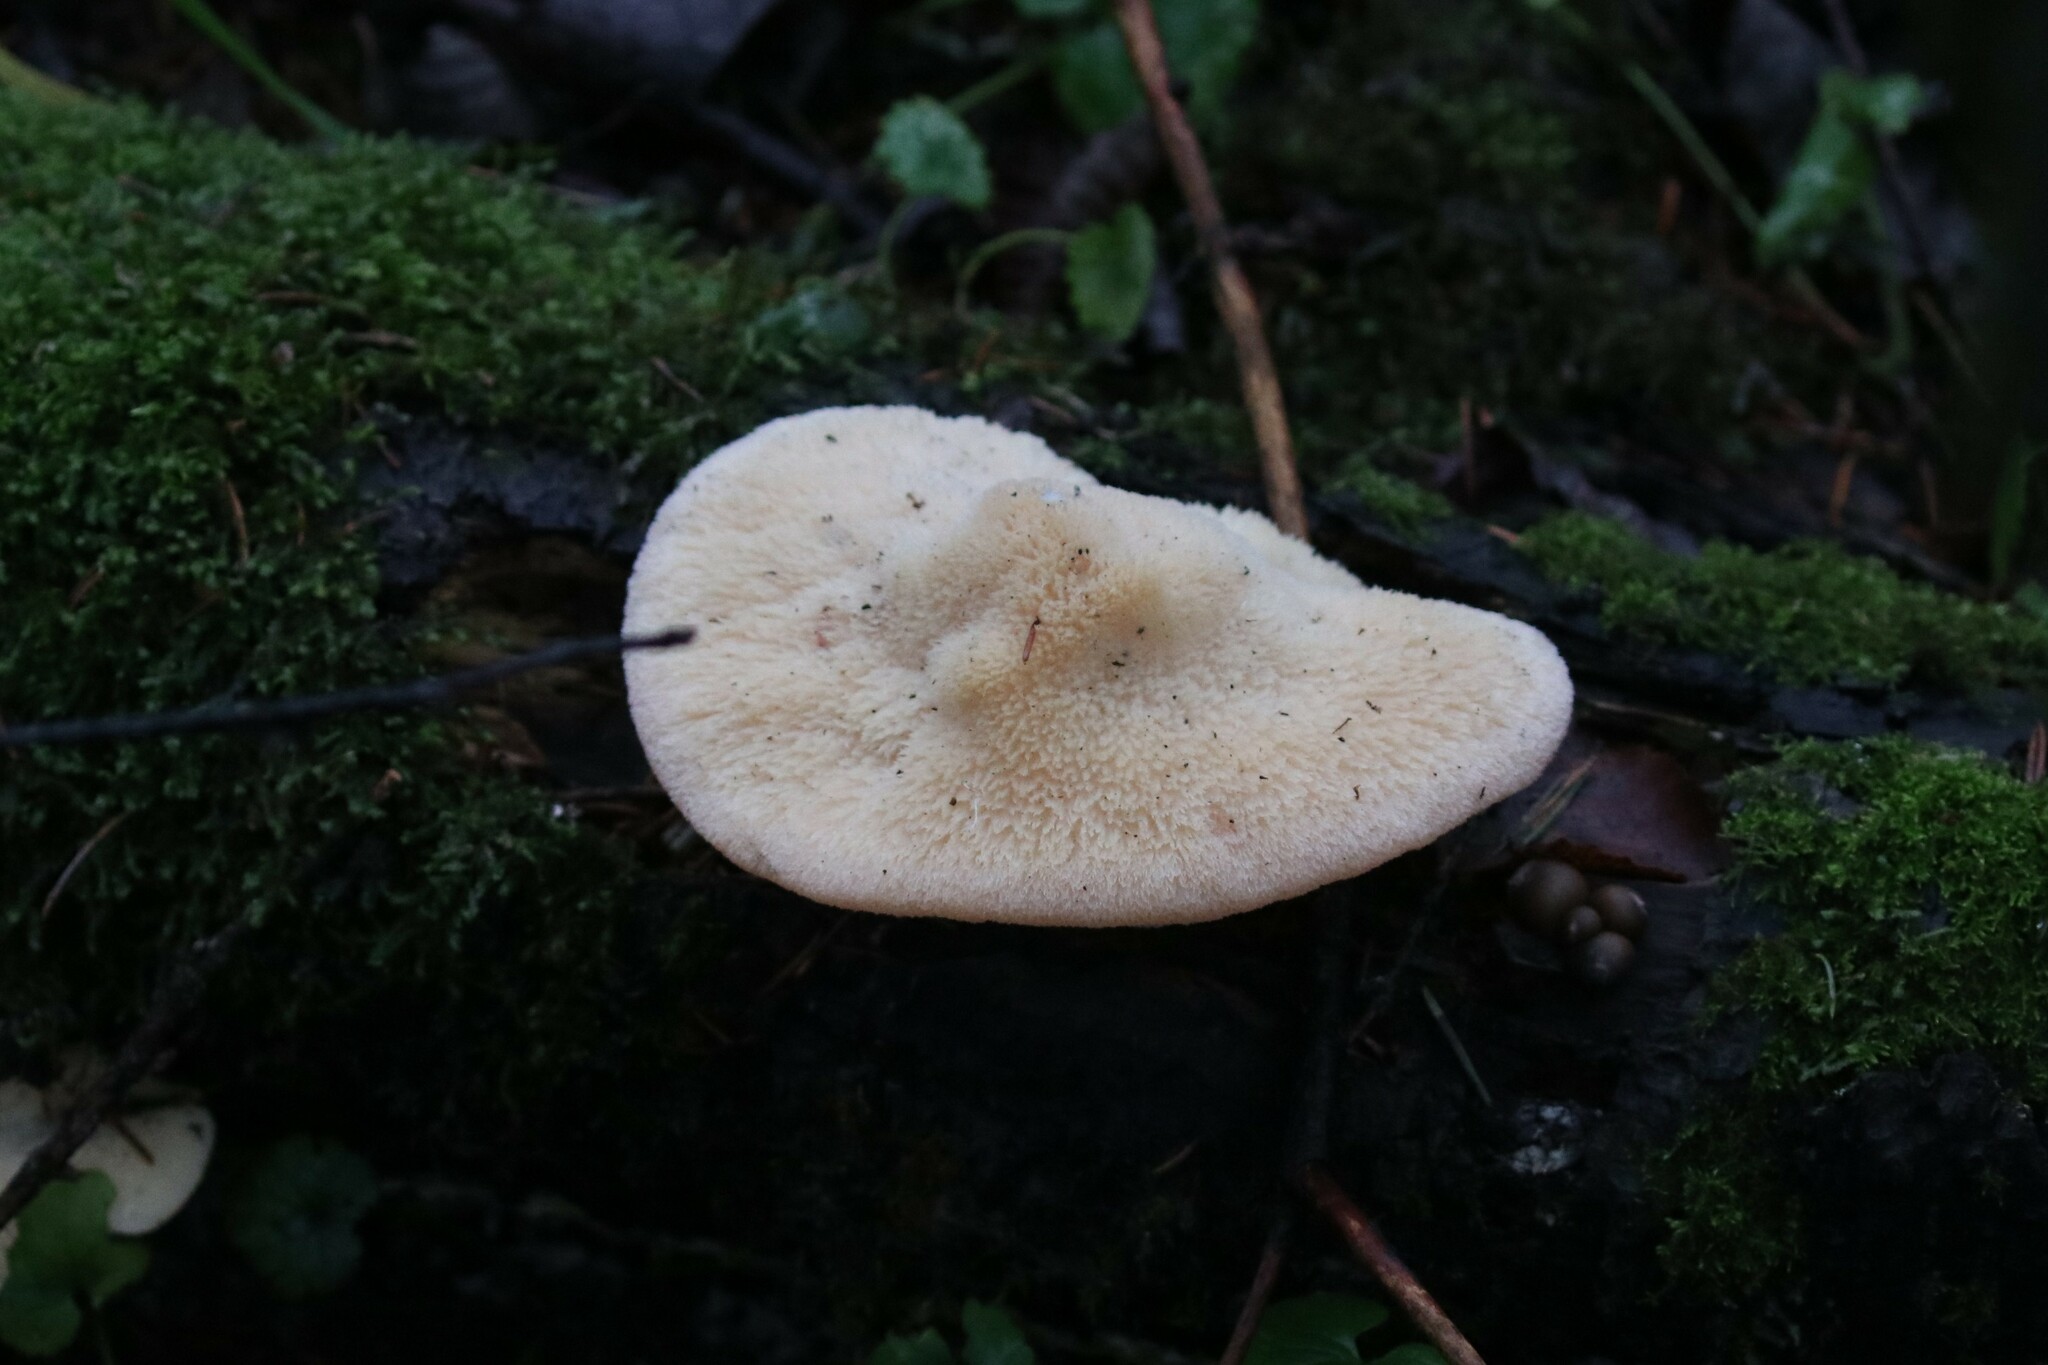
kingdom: Fungi
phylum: Basidiomycota
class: Agaricomycetes
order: Polyporales
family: Fomitopsidaceae
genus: Climacocystis
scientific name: Climacocystis borealis
